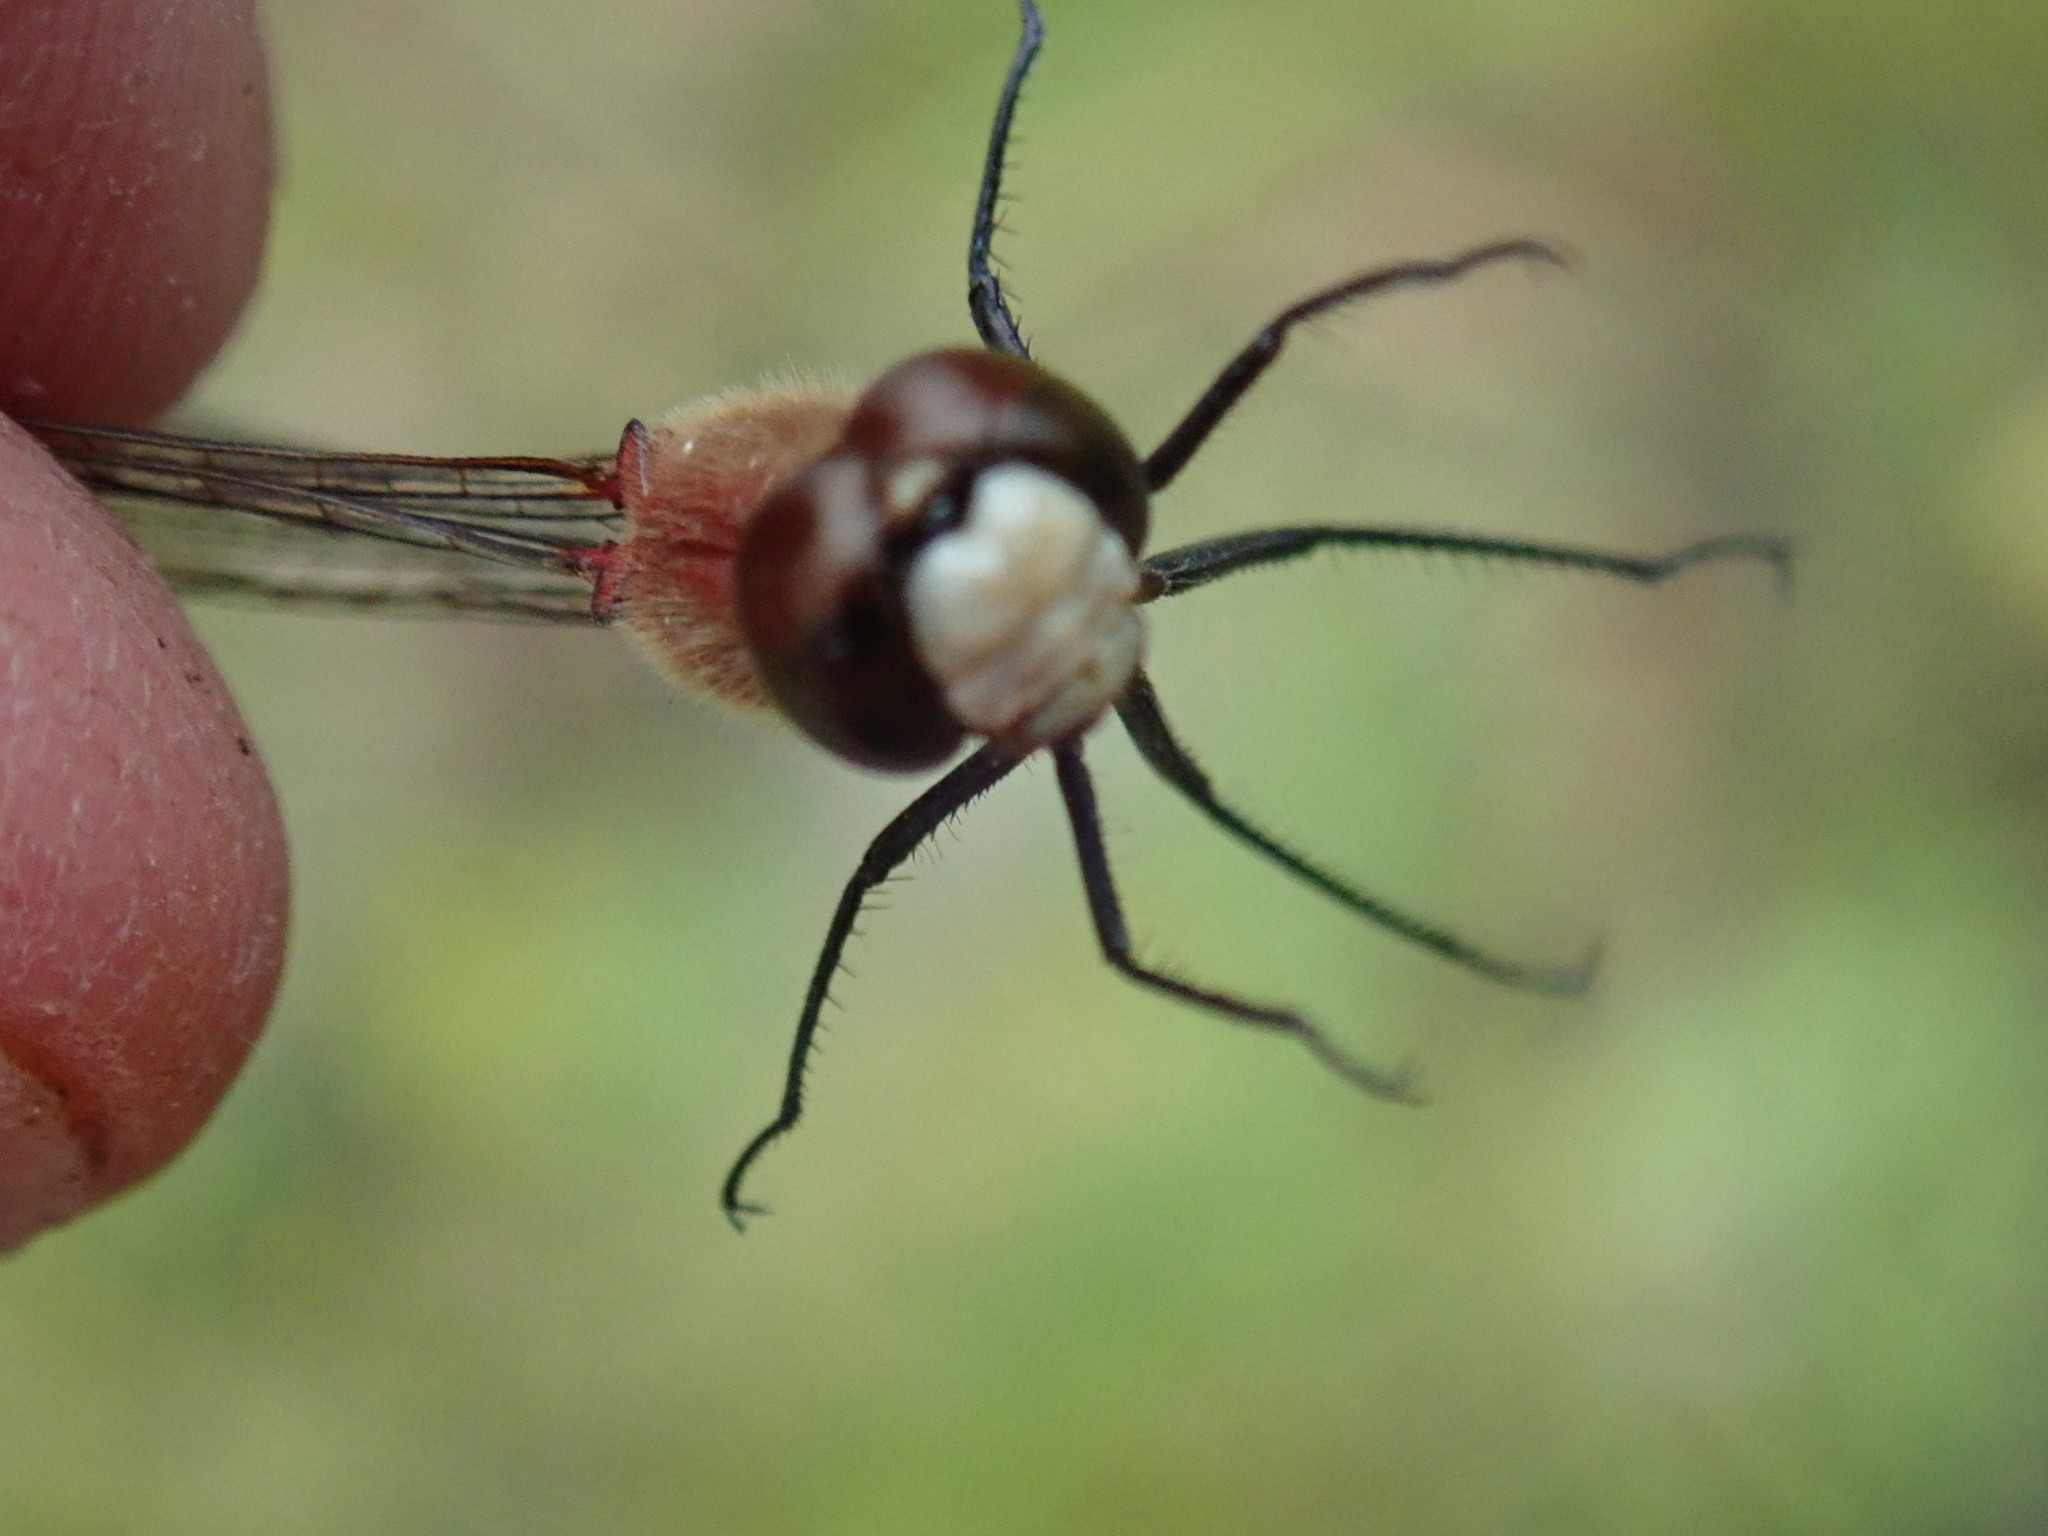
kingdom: Animalia
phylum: Arthropoda
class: Insecta
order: Odonata
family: Libellulidae
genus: Sympetrum
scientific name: Sympetrum obtrusum
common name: White-faced meadowhawk
